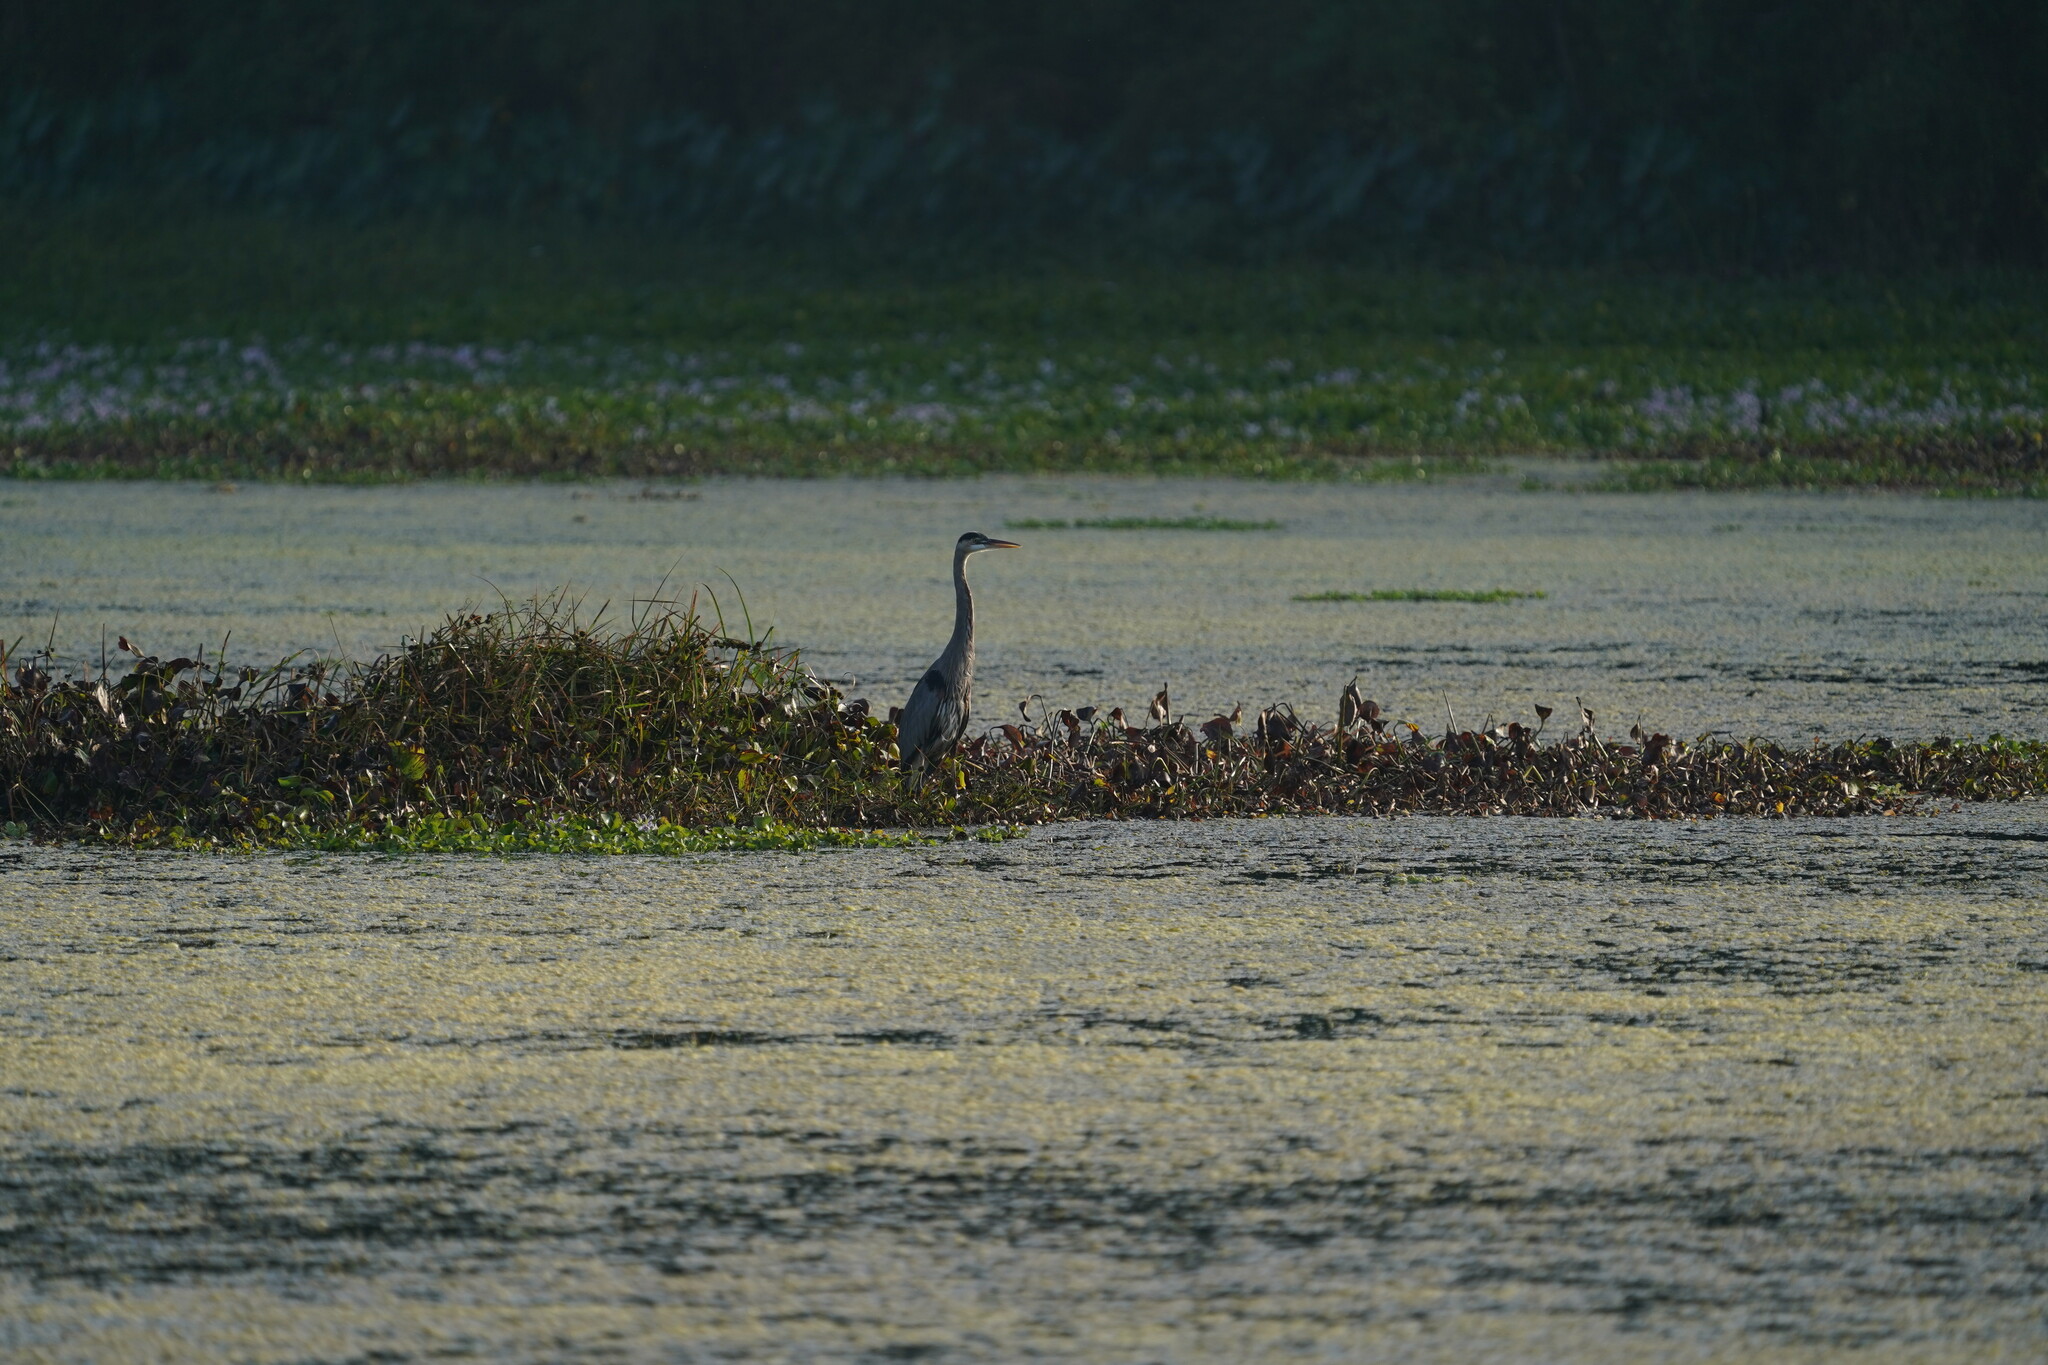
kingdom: Animalia
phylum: Chordata
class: Aves
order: Pelecaniformes
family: Ardeidae
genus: Ardea
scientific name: Ardea herodias
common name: Great blue heron
